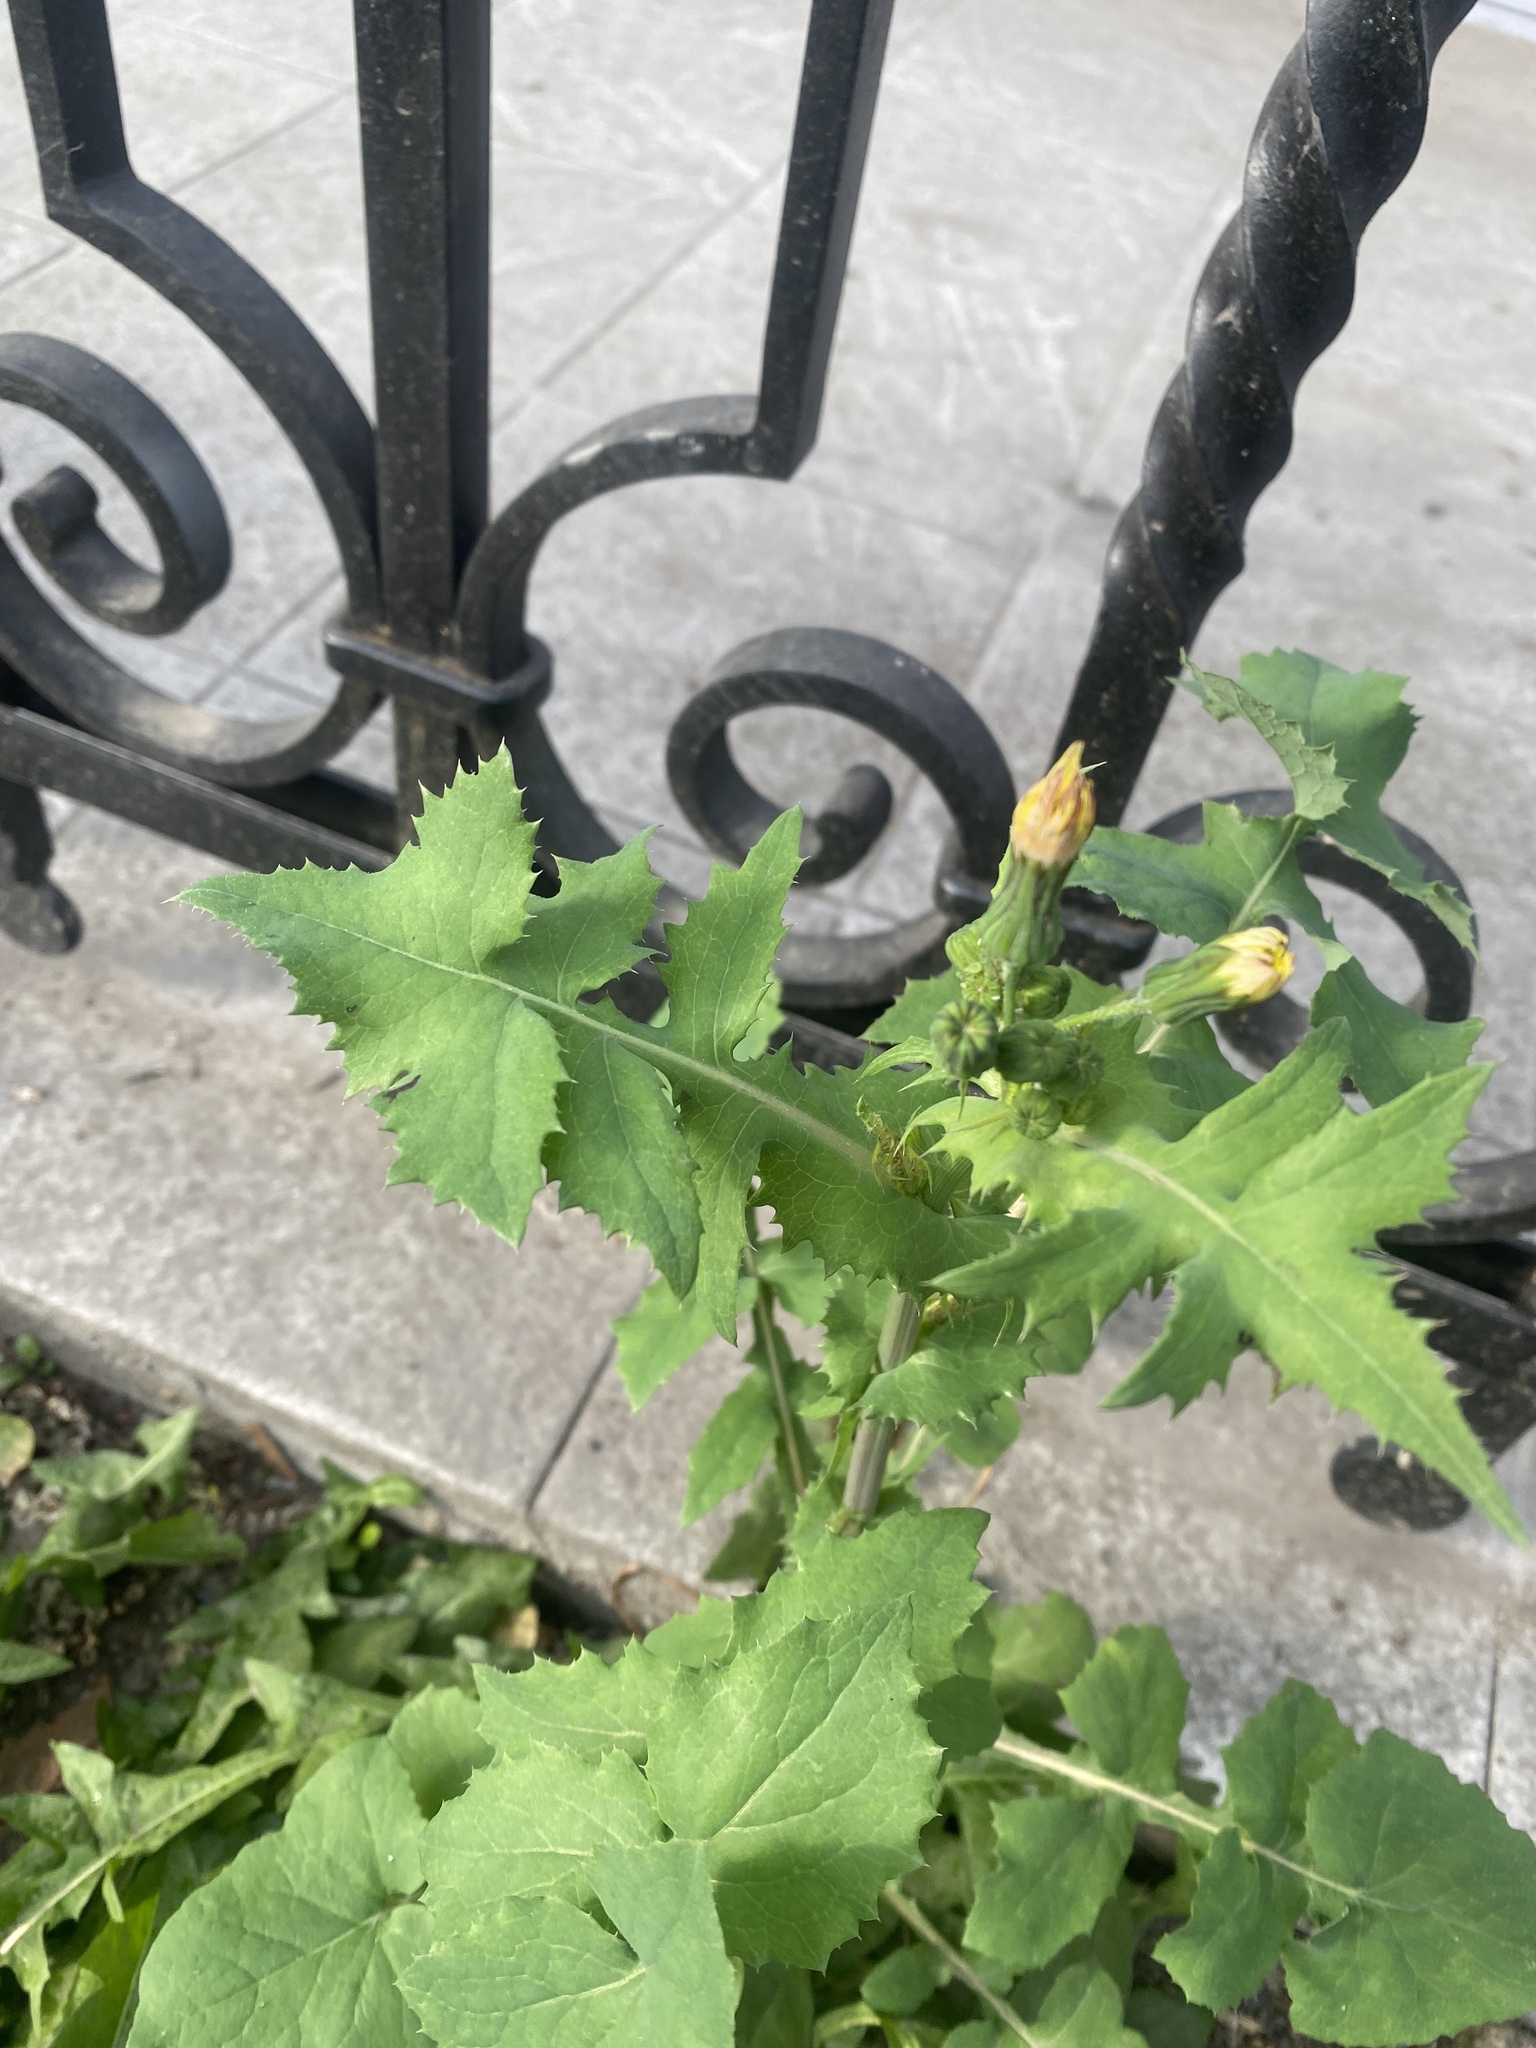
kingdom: Plantae
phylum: Tracheophyta
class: Magnoliopsida
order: Asterales
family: Asteraceae
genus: Sonchus
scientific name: Sonchus oleraceus
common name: Common sowthistle
